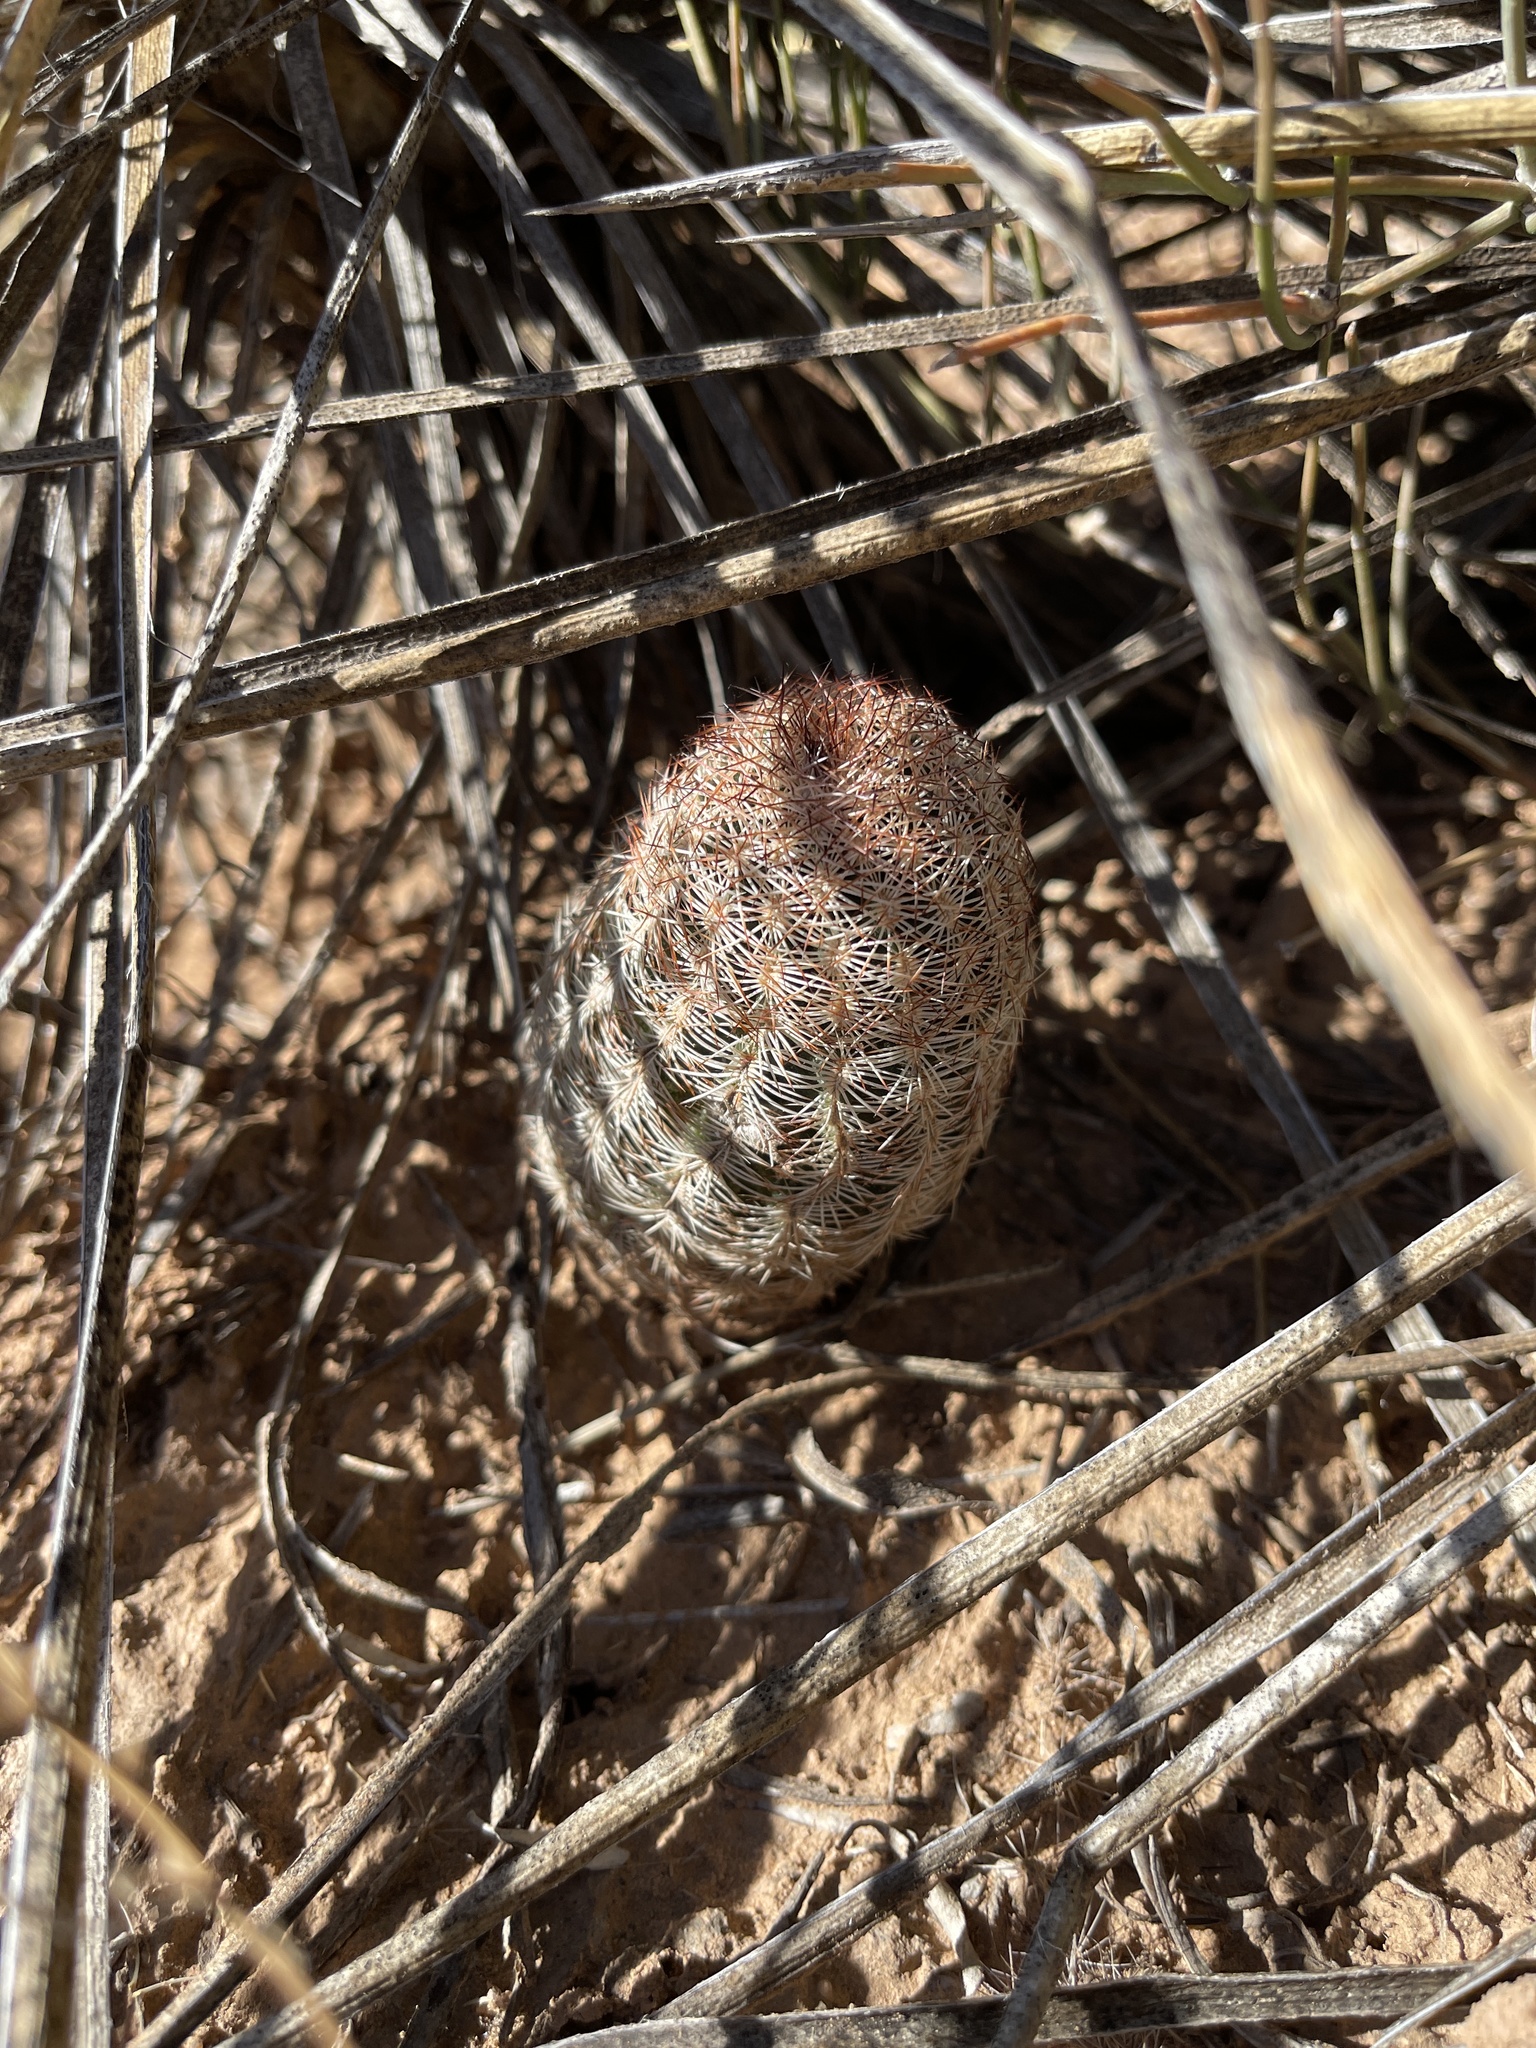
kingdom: Plantae
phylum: Tracheophyta
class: Magnoliopsida
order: Caryophyllales
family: Cactaceae
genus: Echinocereus
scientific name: Echinocereus reichenbachii
